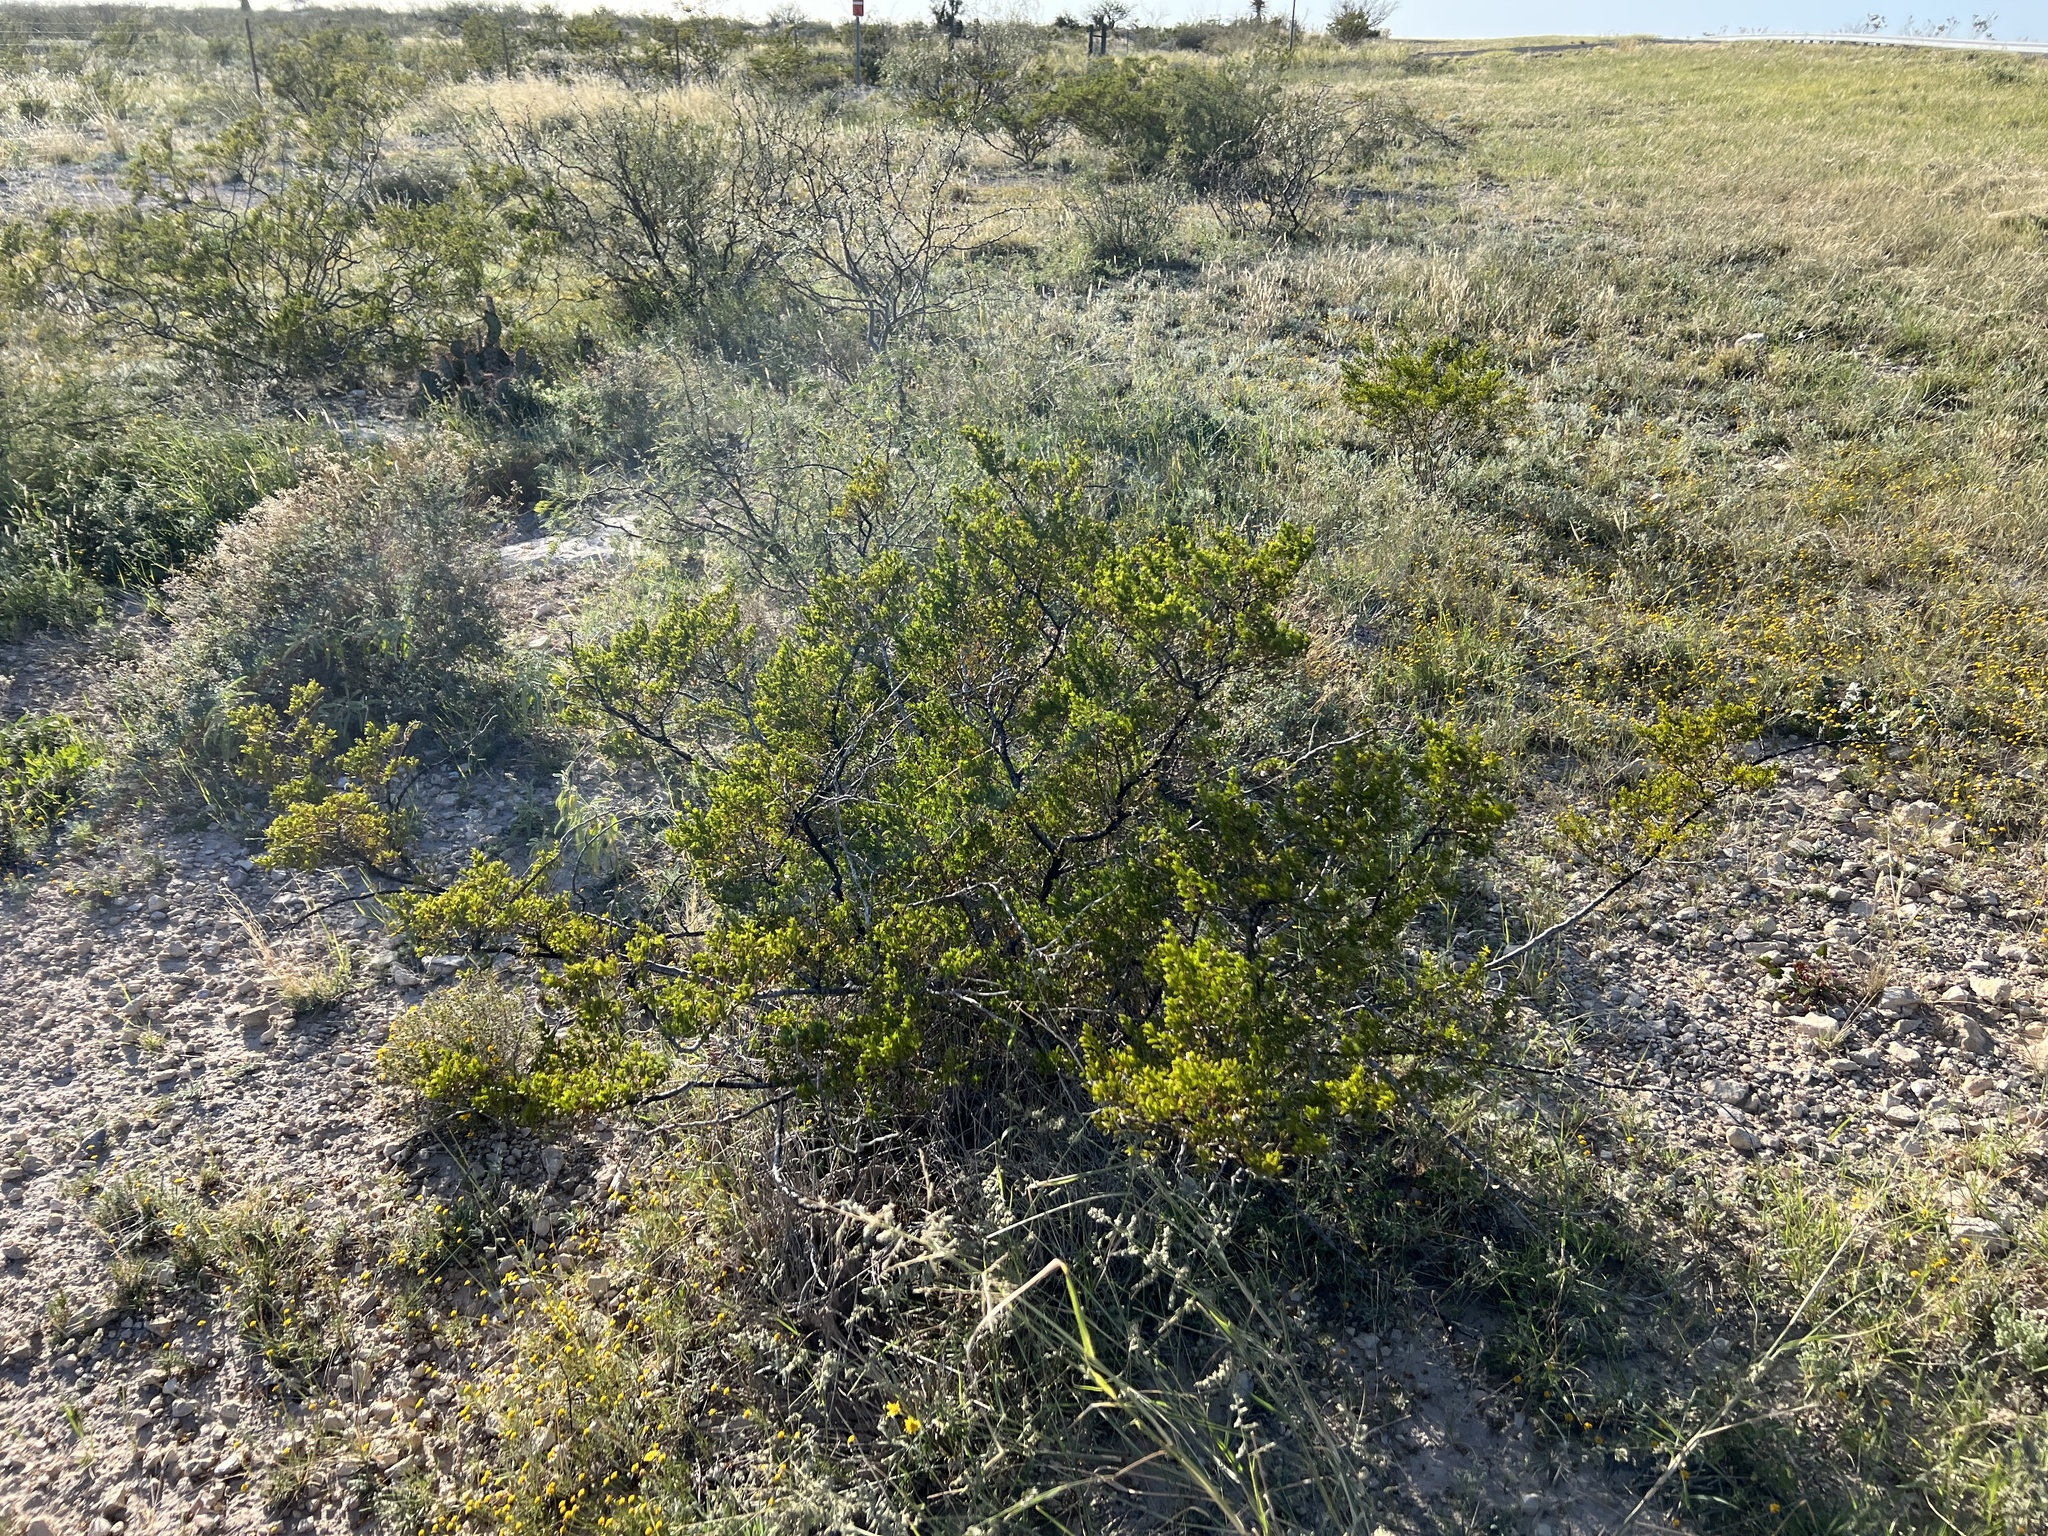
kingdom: Plantae
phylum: Tracheophyta
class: Magnoliopsida
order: Zygophyllales
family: Zygophyllaceae
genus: Larrea
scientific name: Larrea tridentata
